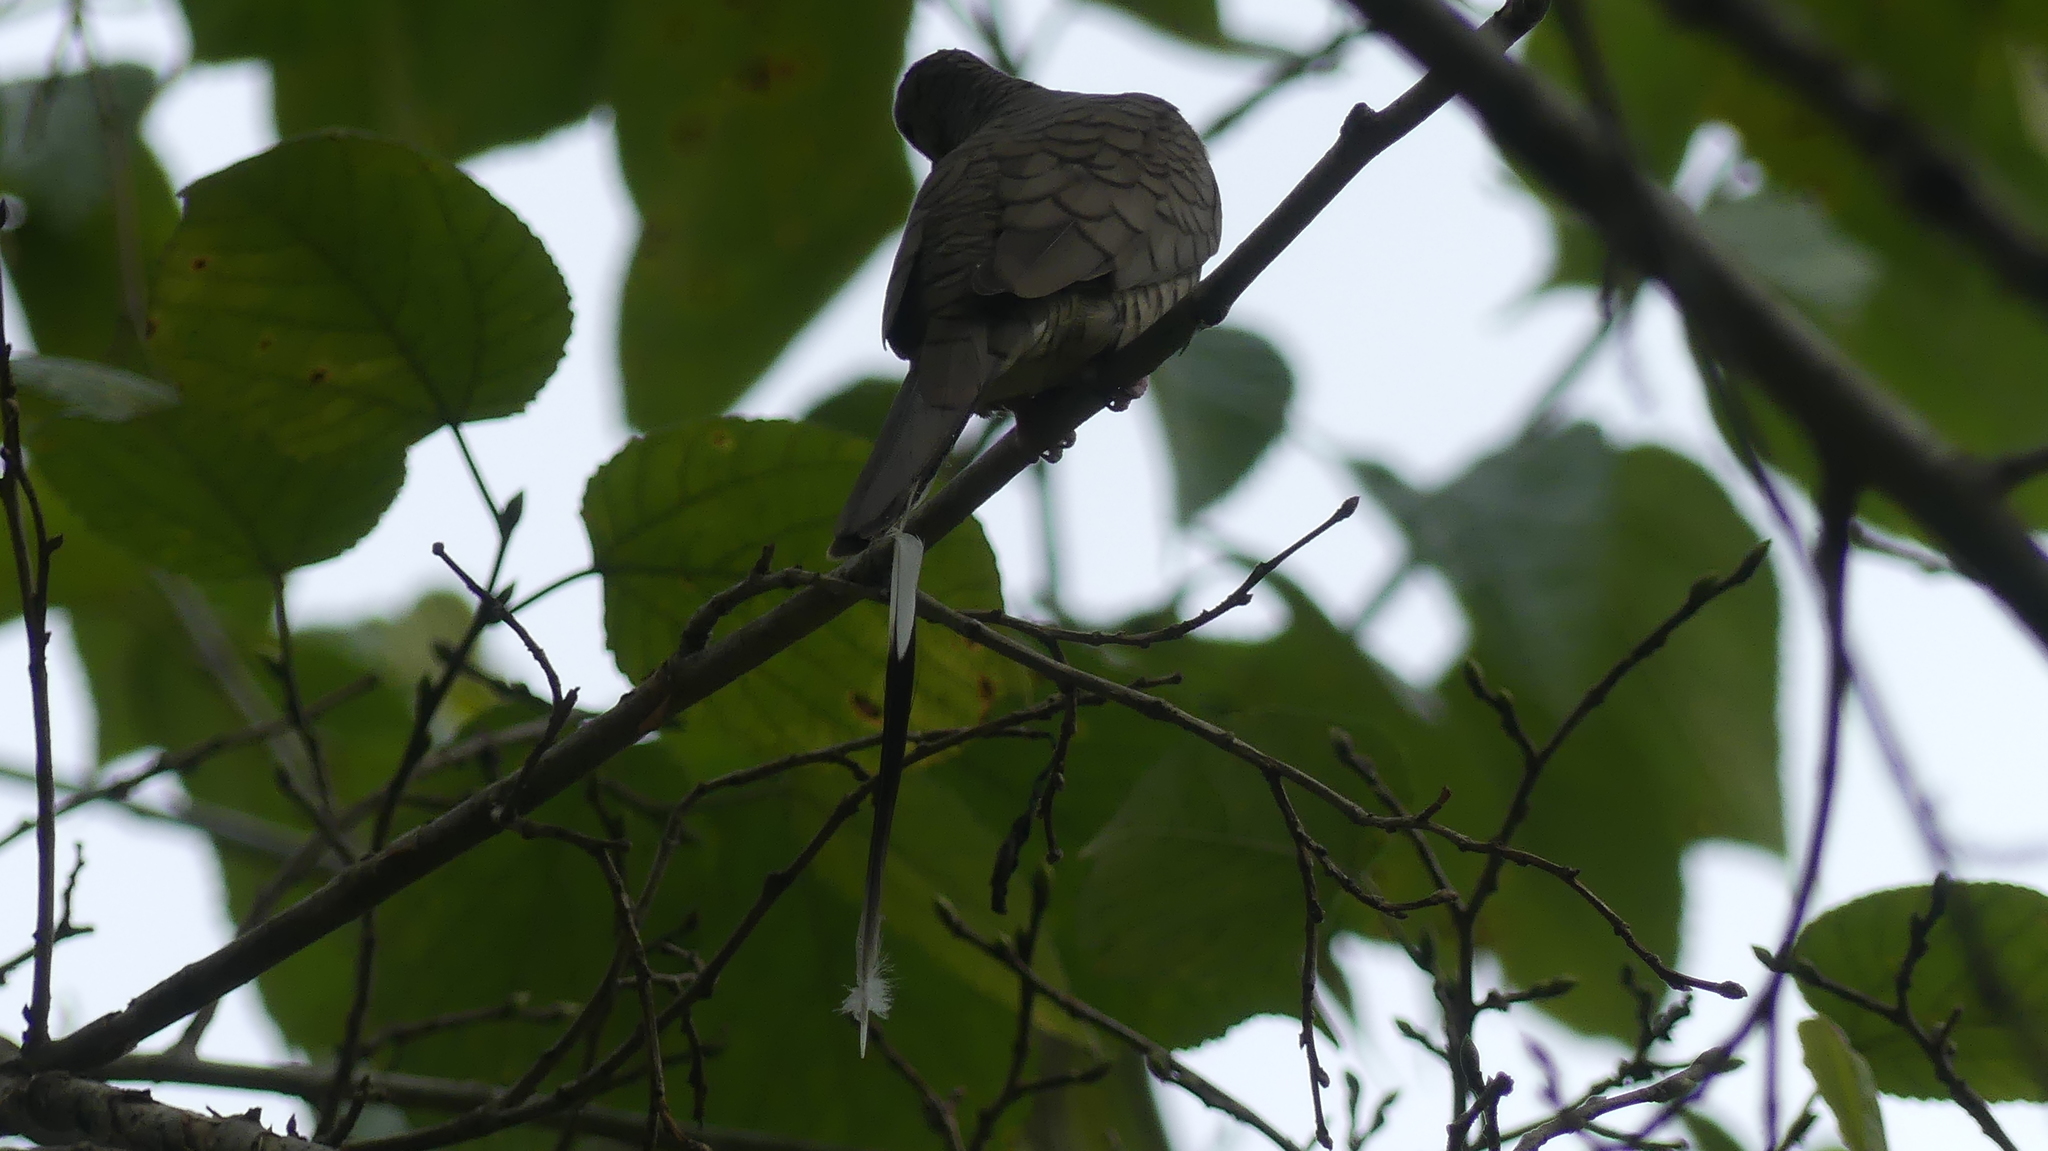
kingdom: Animalia
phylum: Chordata
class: Aves
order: Columbiformes
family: Columbidae
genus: Columbina
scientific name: Columbina inca
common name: Inca dove
